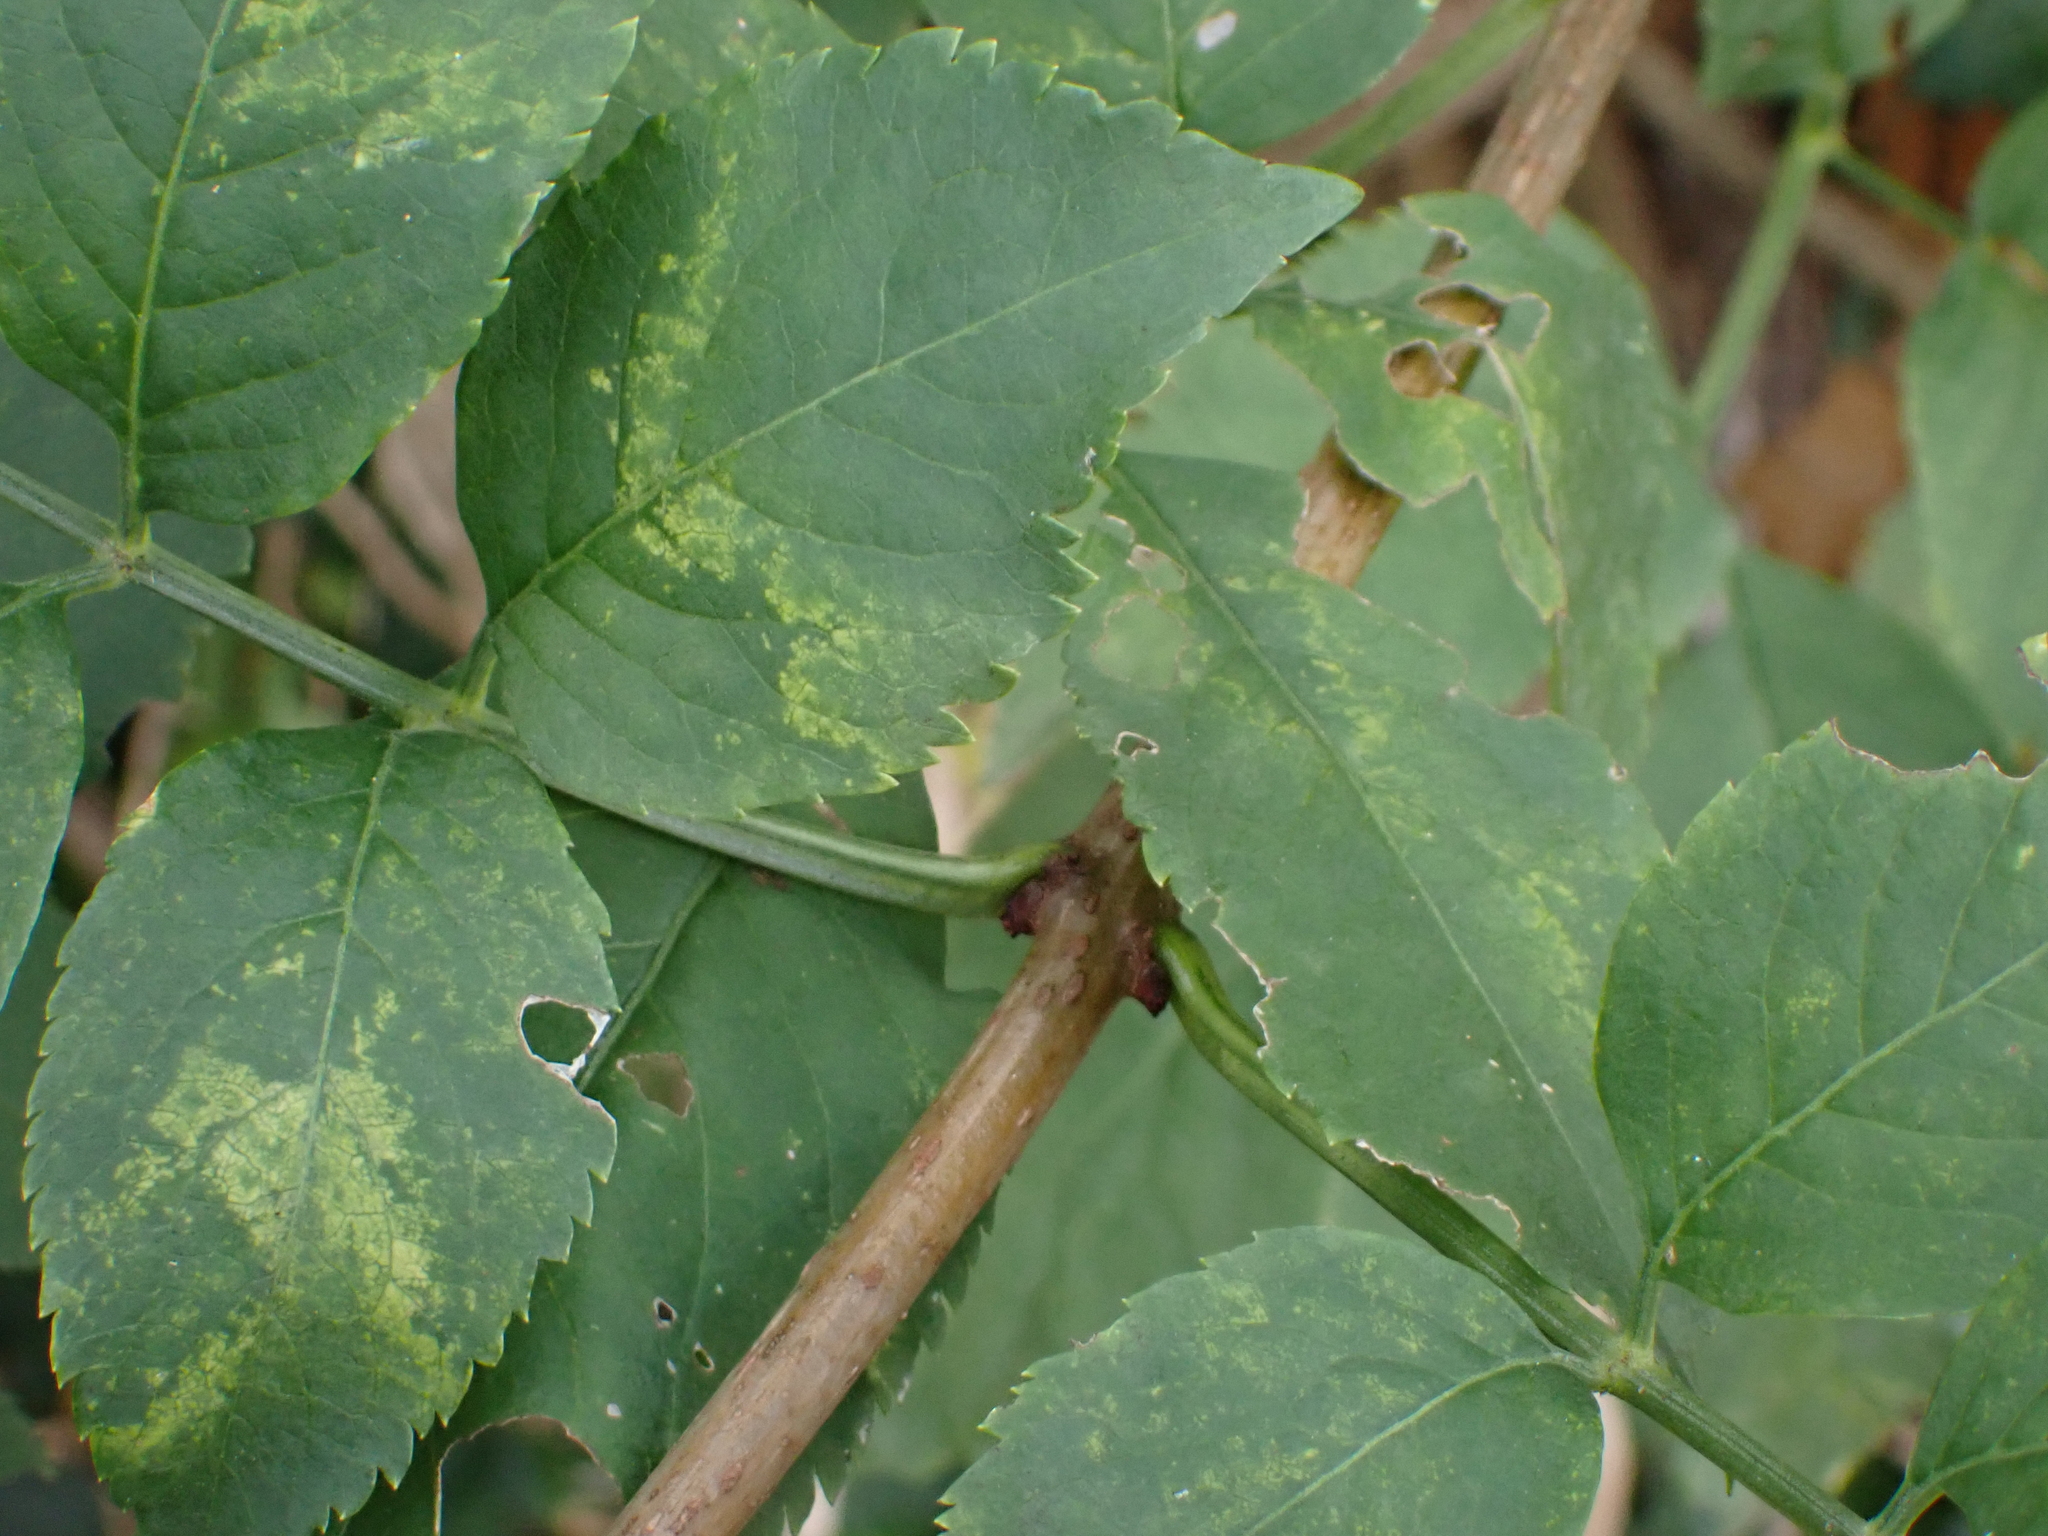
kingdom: Plantae
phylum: Tracheophyta
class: Magnoliopsida
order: Dipsacales
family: Viburnaceae
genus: Sambucus
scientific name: Sambucus nigra
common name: Elder
